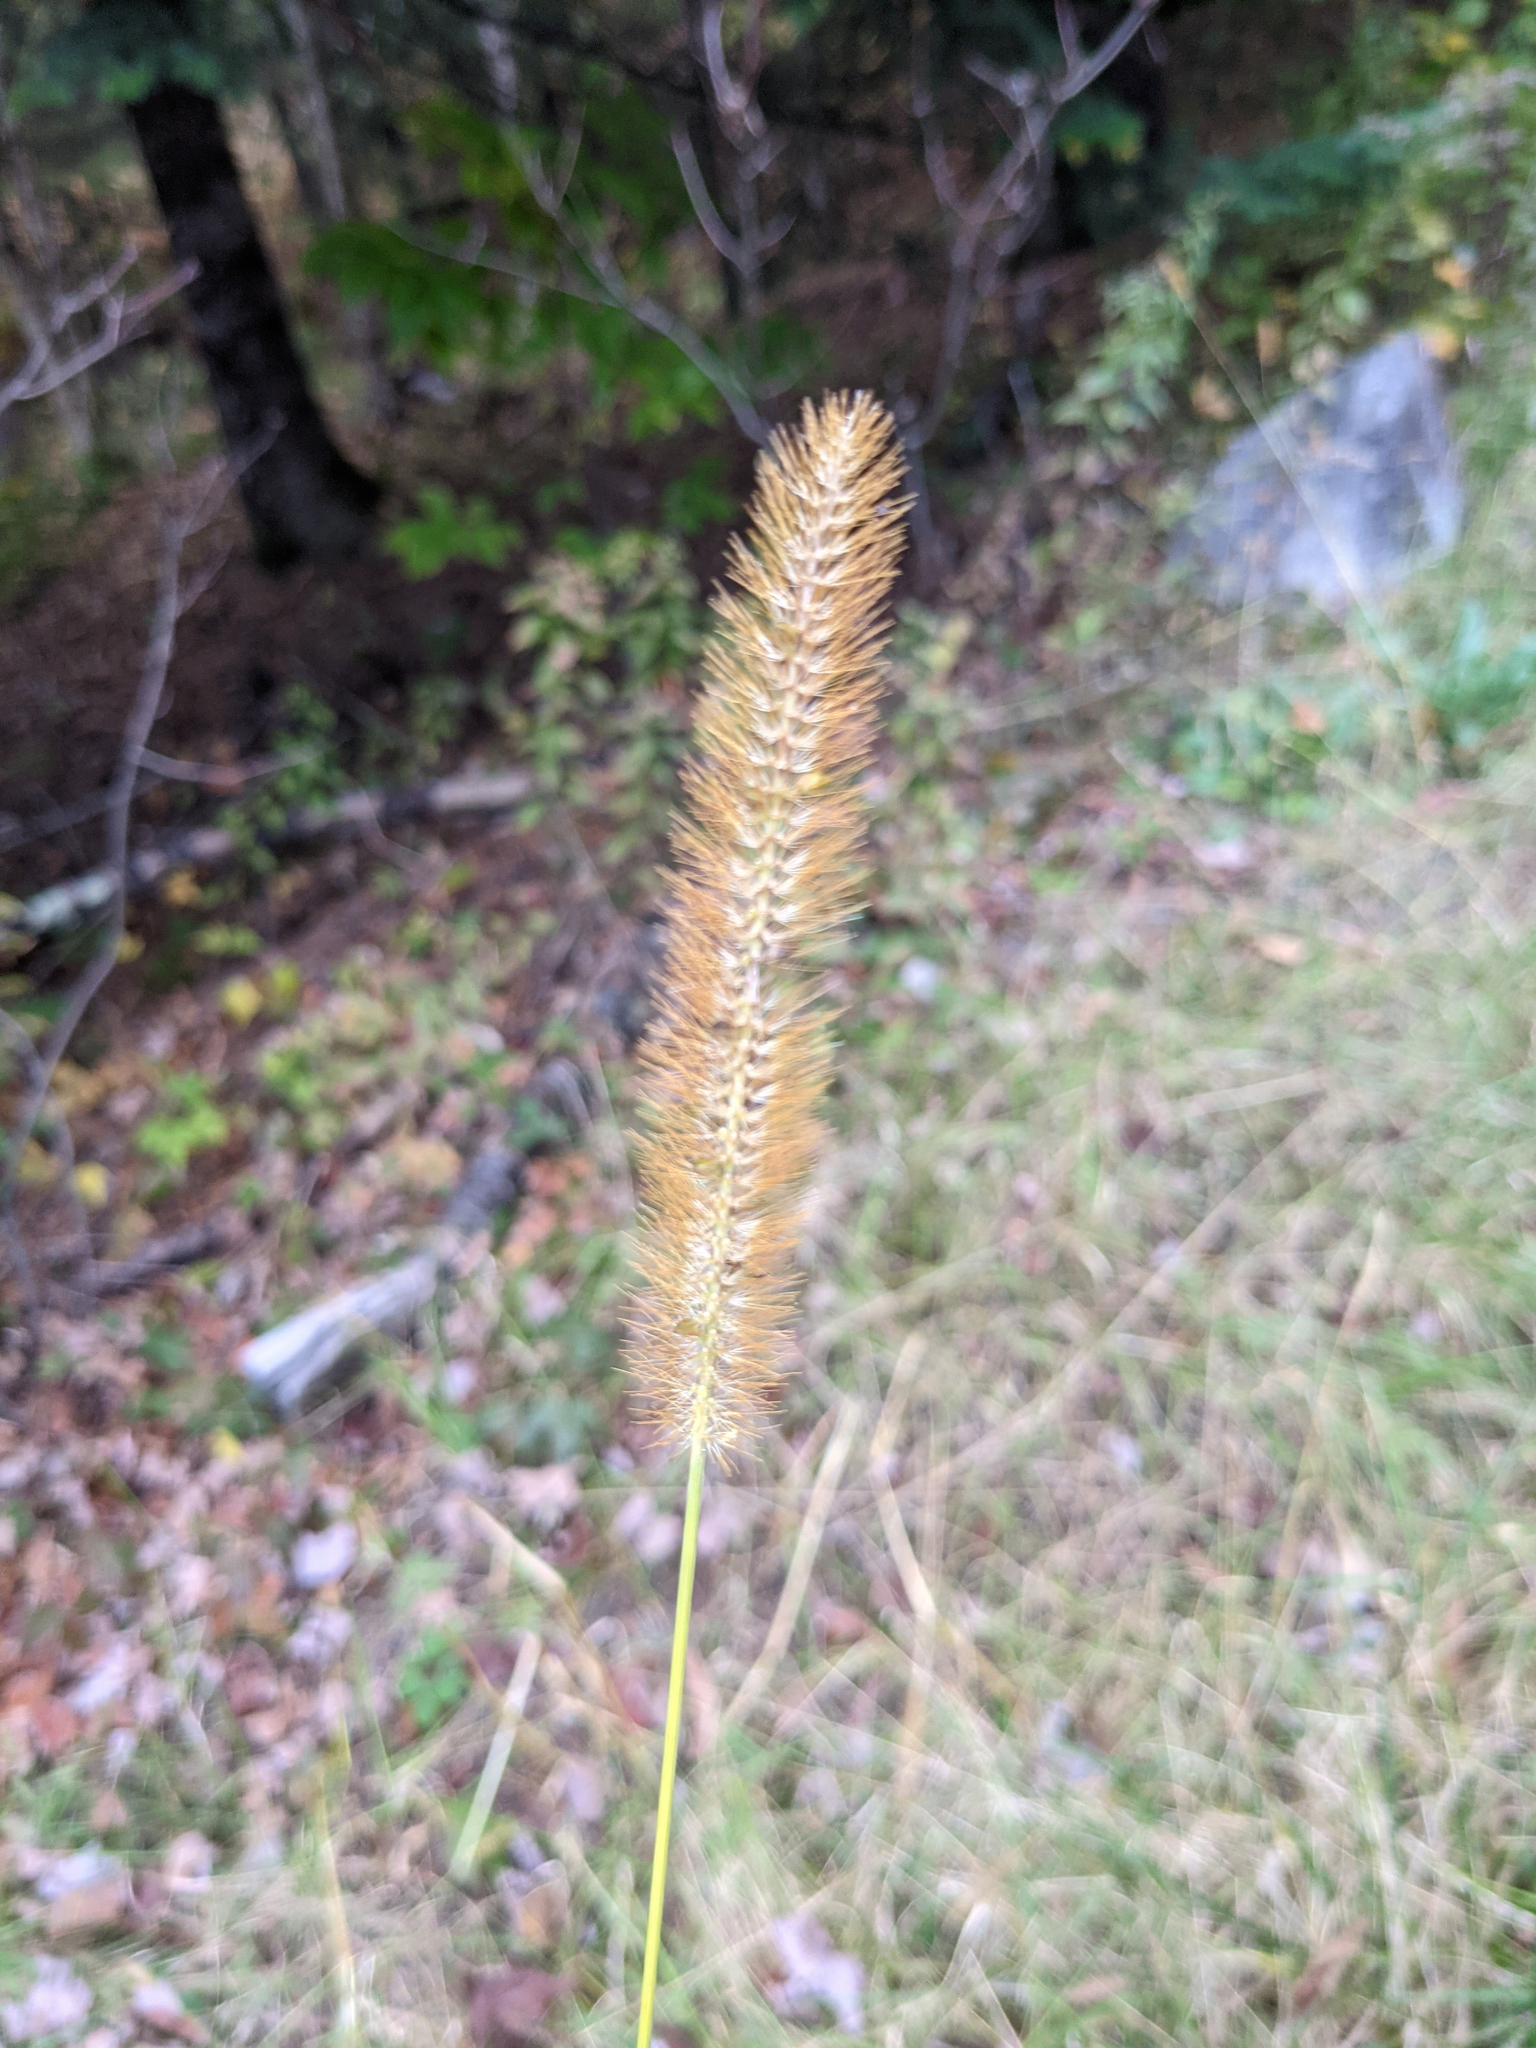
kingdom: Plantae
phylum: Tracheophyta
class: Liliopsida
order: Poales
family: Poaceae
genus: Setaria
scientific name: Setaria pumila
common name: Yellow bristle-grass
